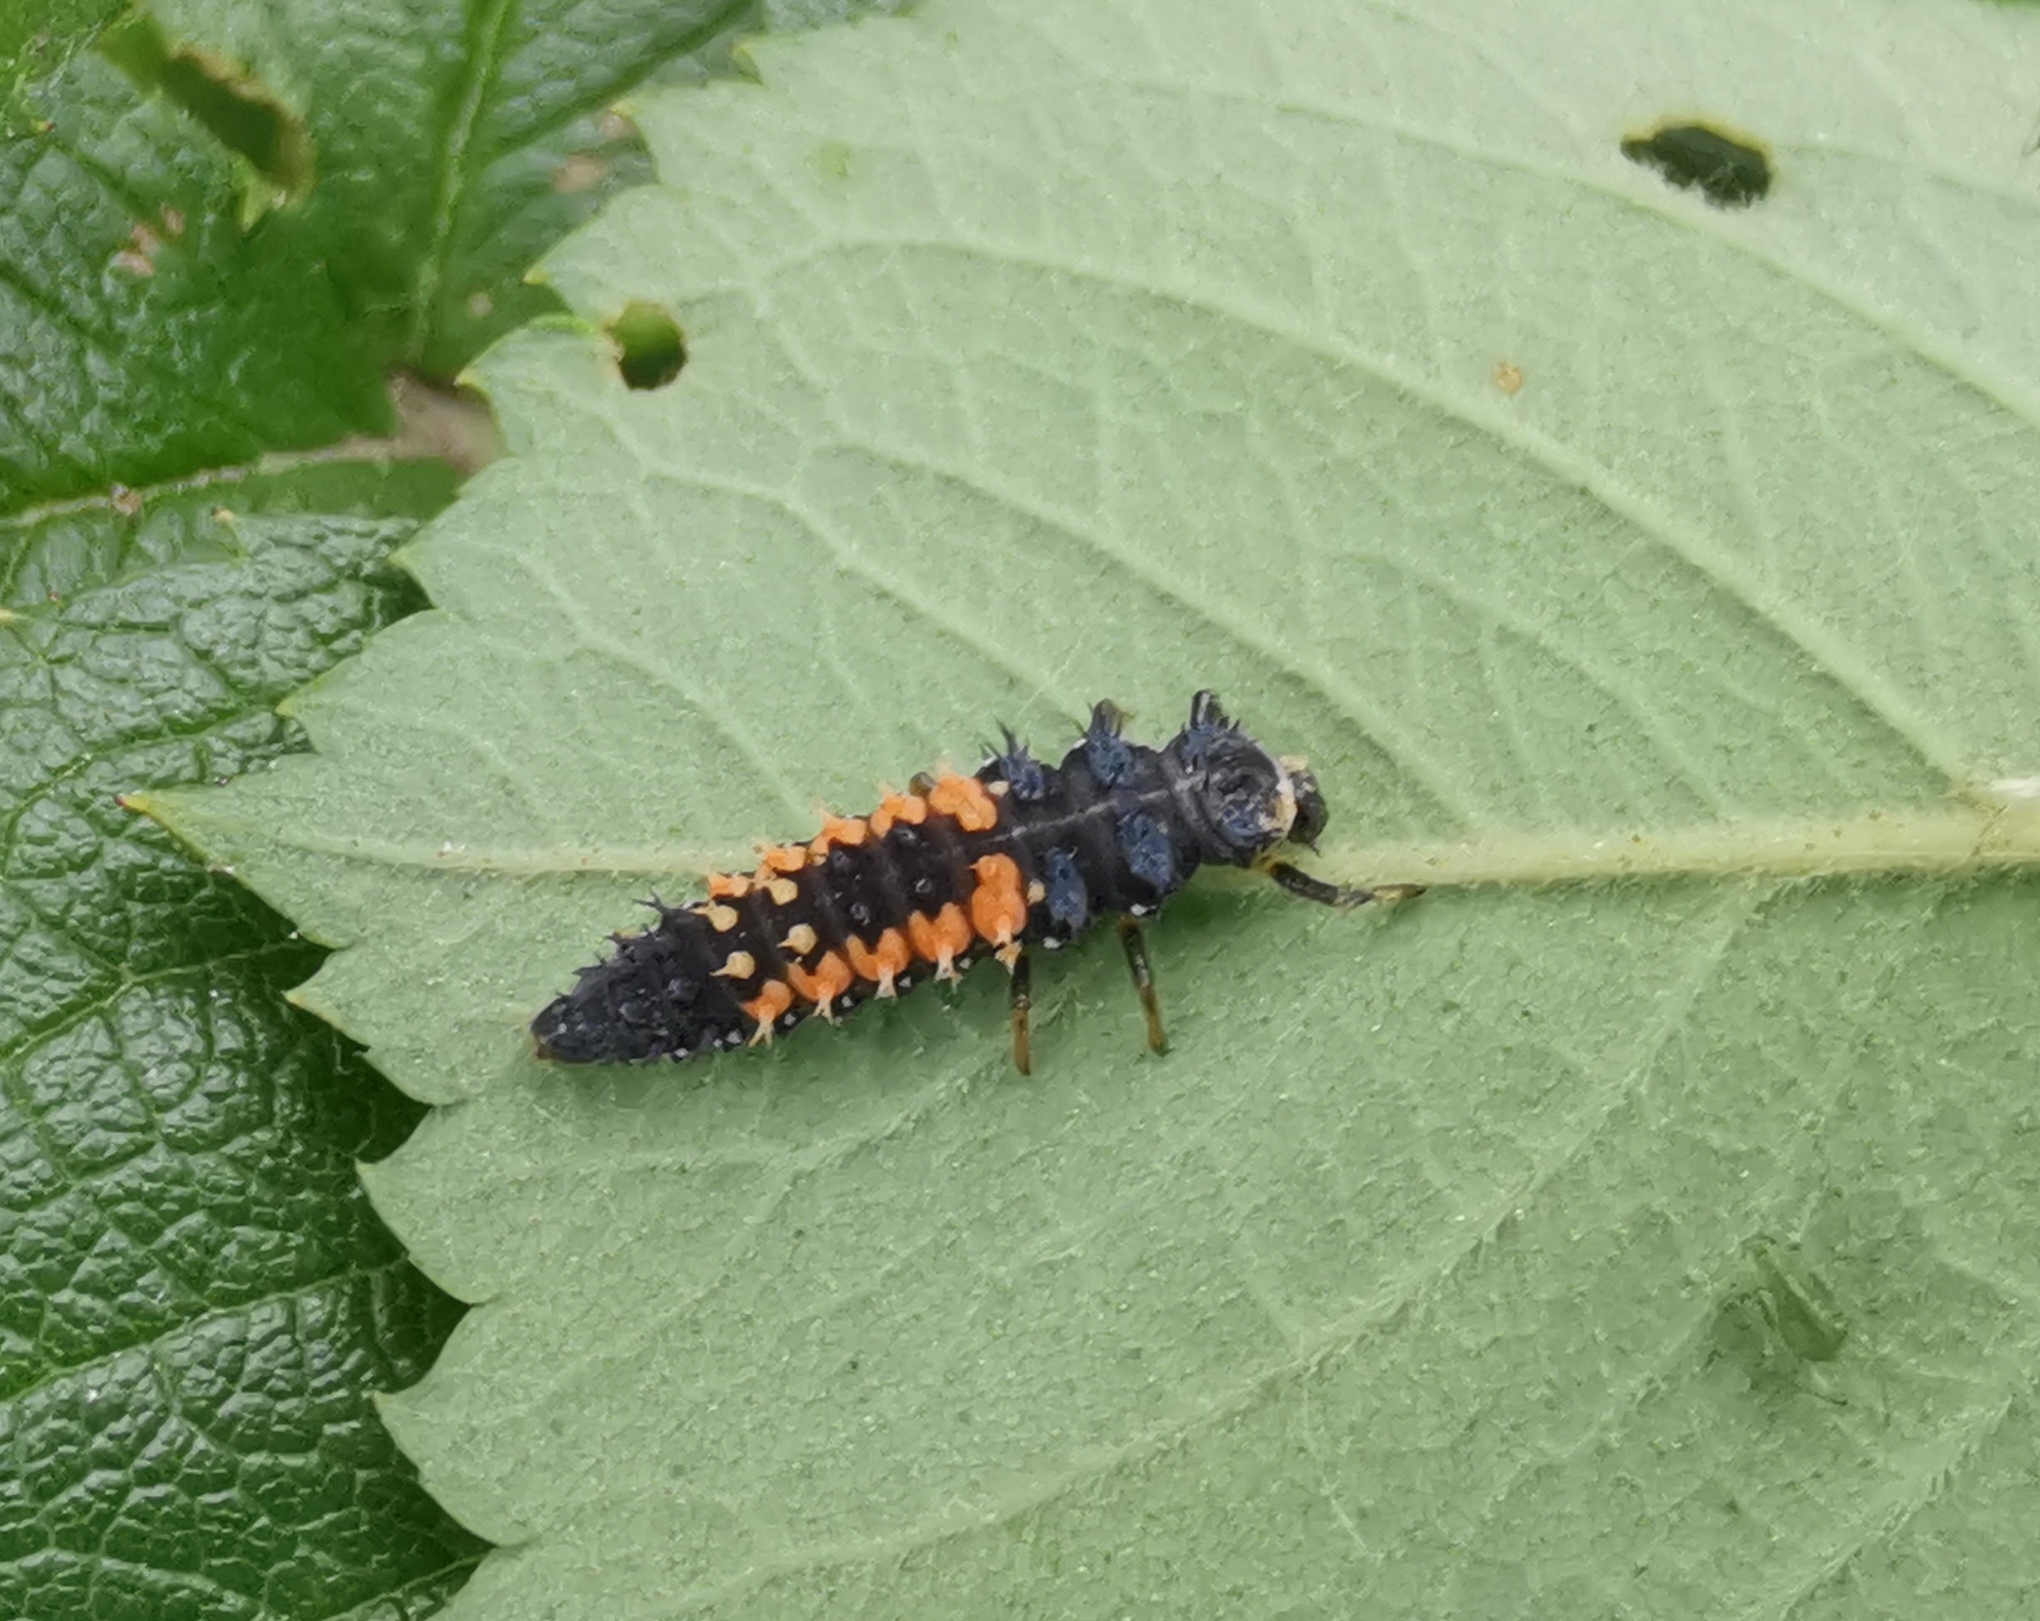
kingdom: Animalia
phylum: Arthropoda
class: Insecta
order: Coleoptera
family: Coccinellidae
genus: Harmonia
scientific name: Harmonia axyridis
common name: Harlequin ladybird
